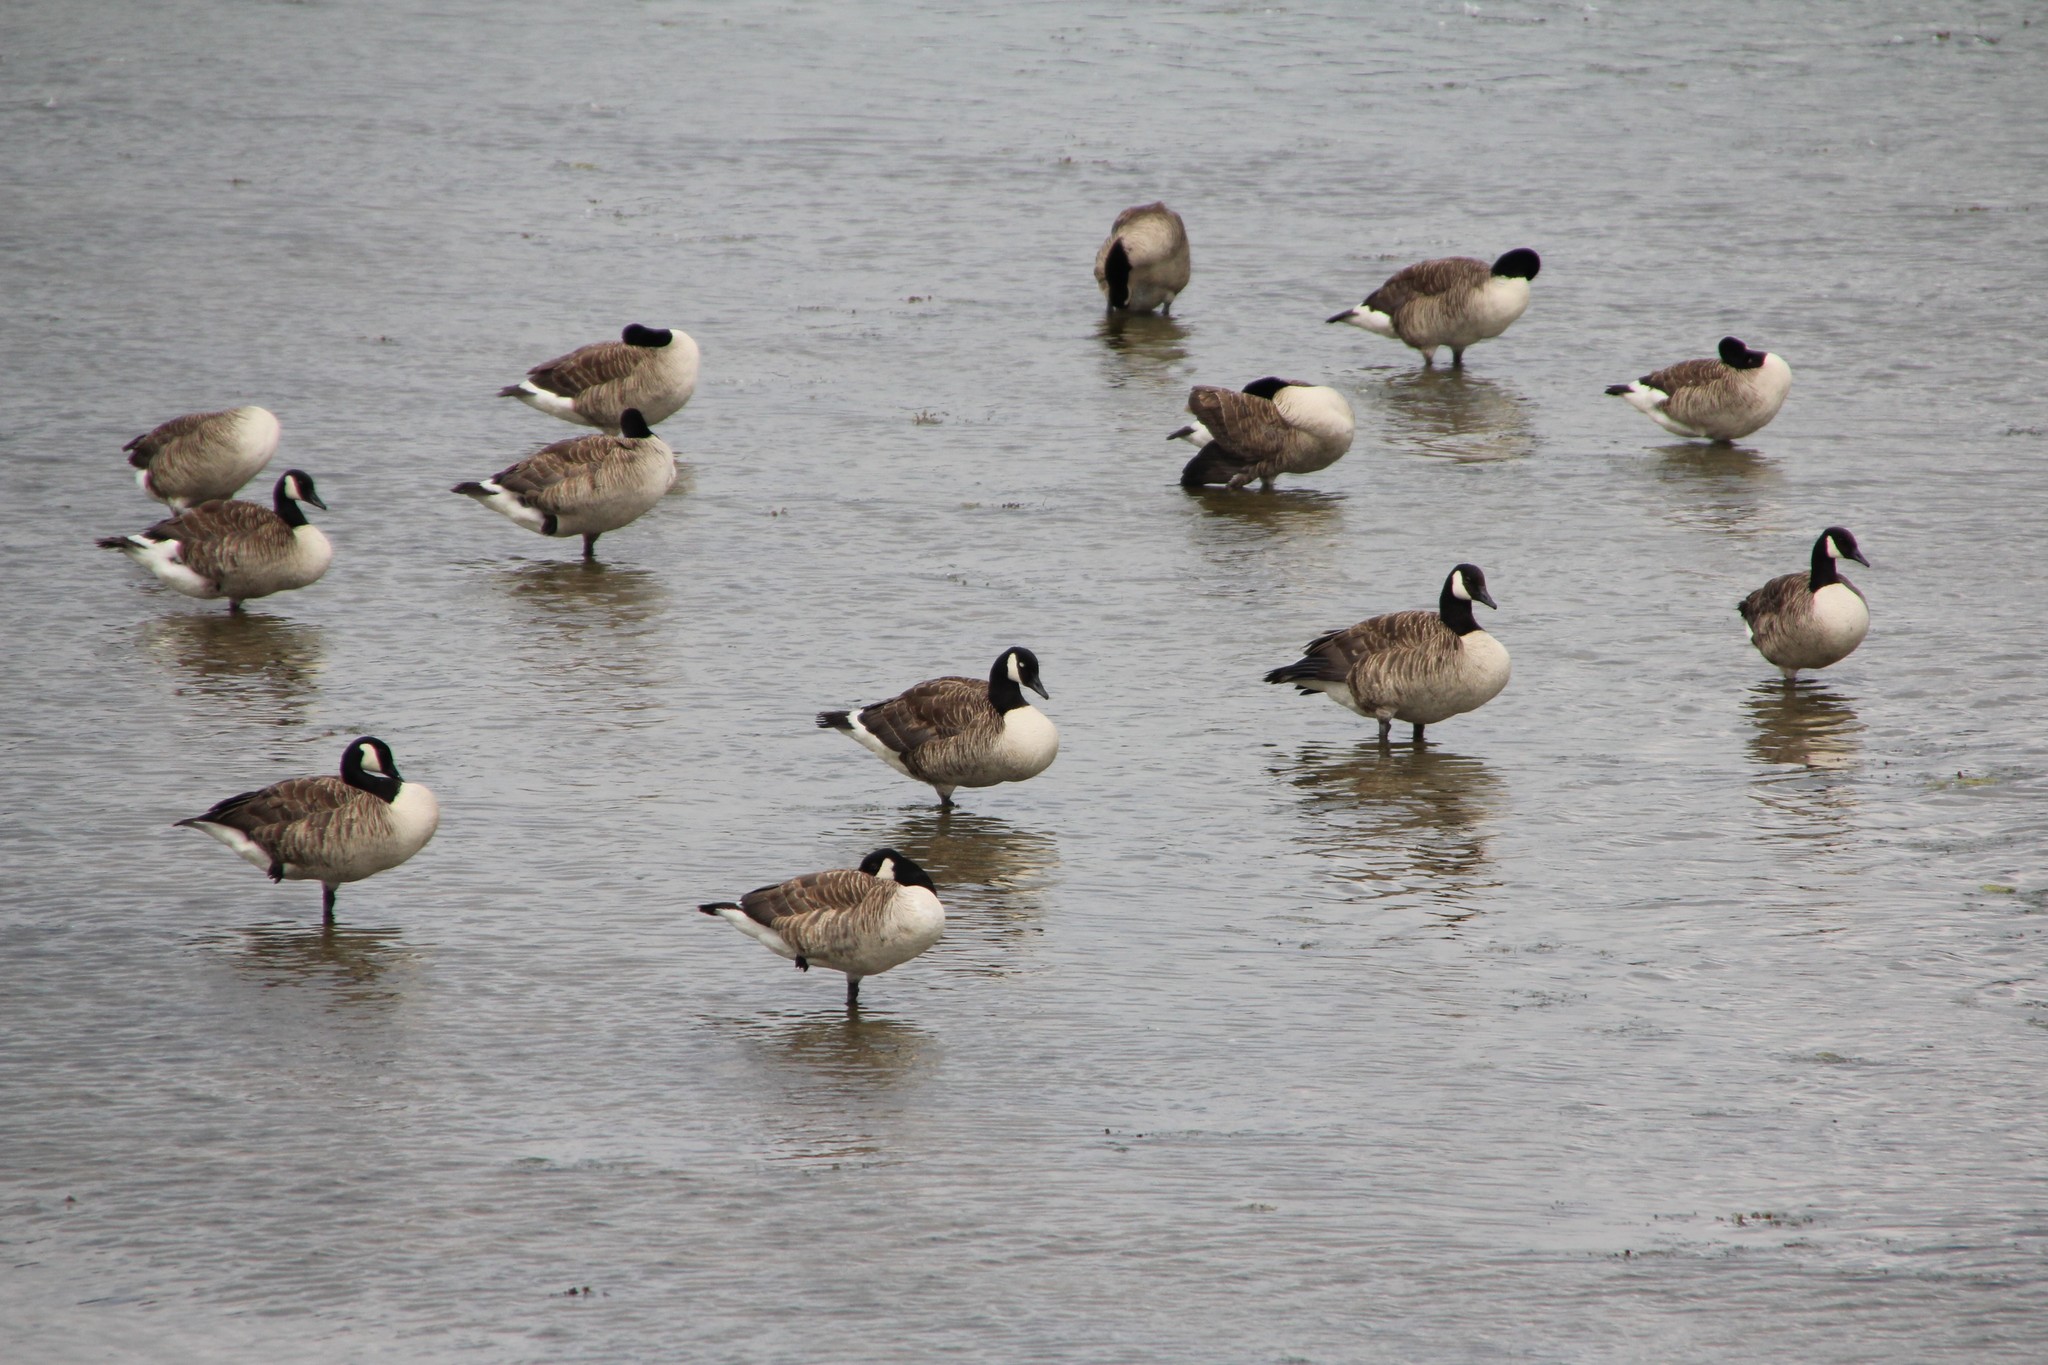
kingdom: Animalia
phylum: Chordata
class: Aves
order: Anseriformes
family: Anatidae
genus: Branta
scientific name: Branta canadensis
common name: Canada goose
